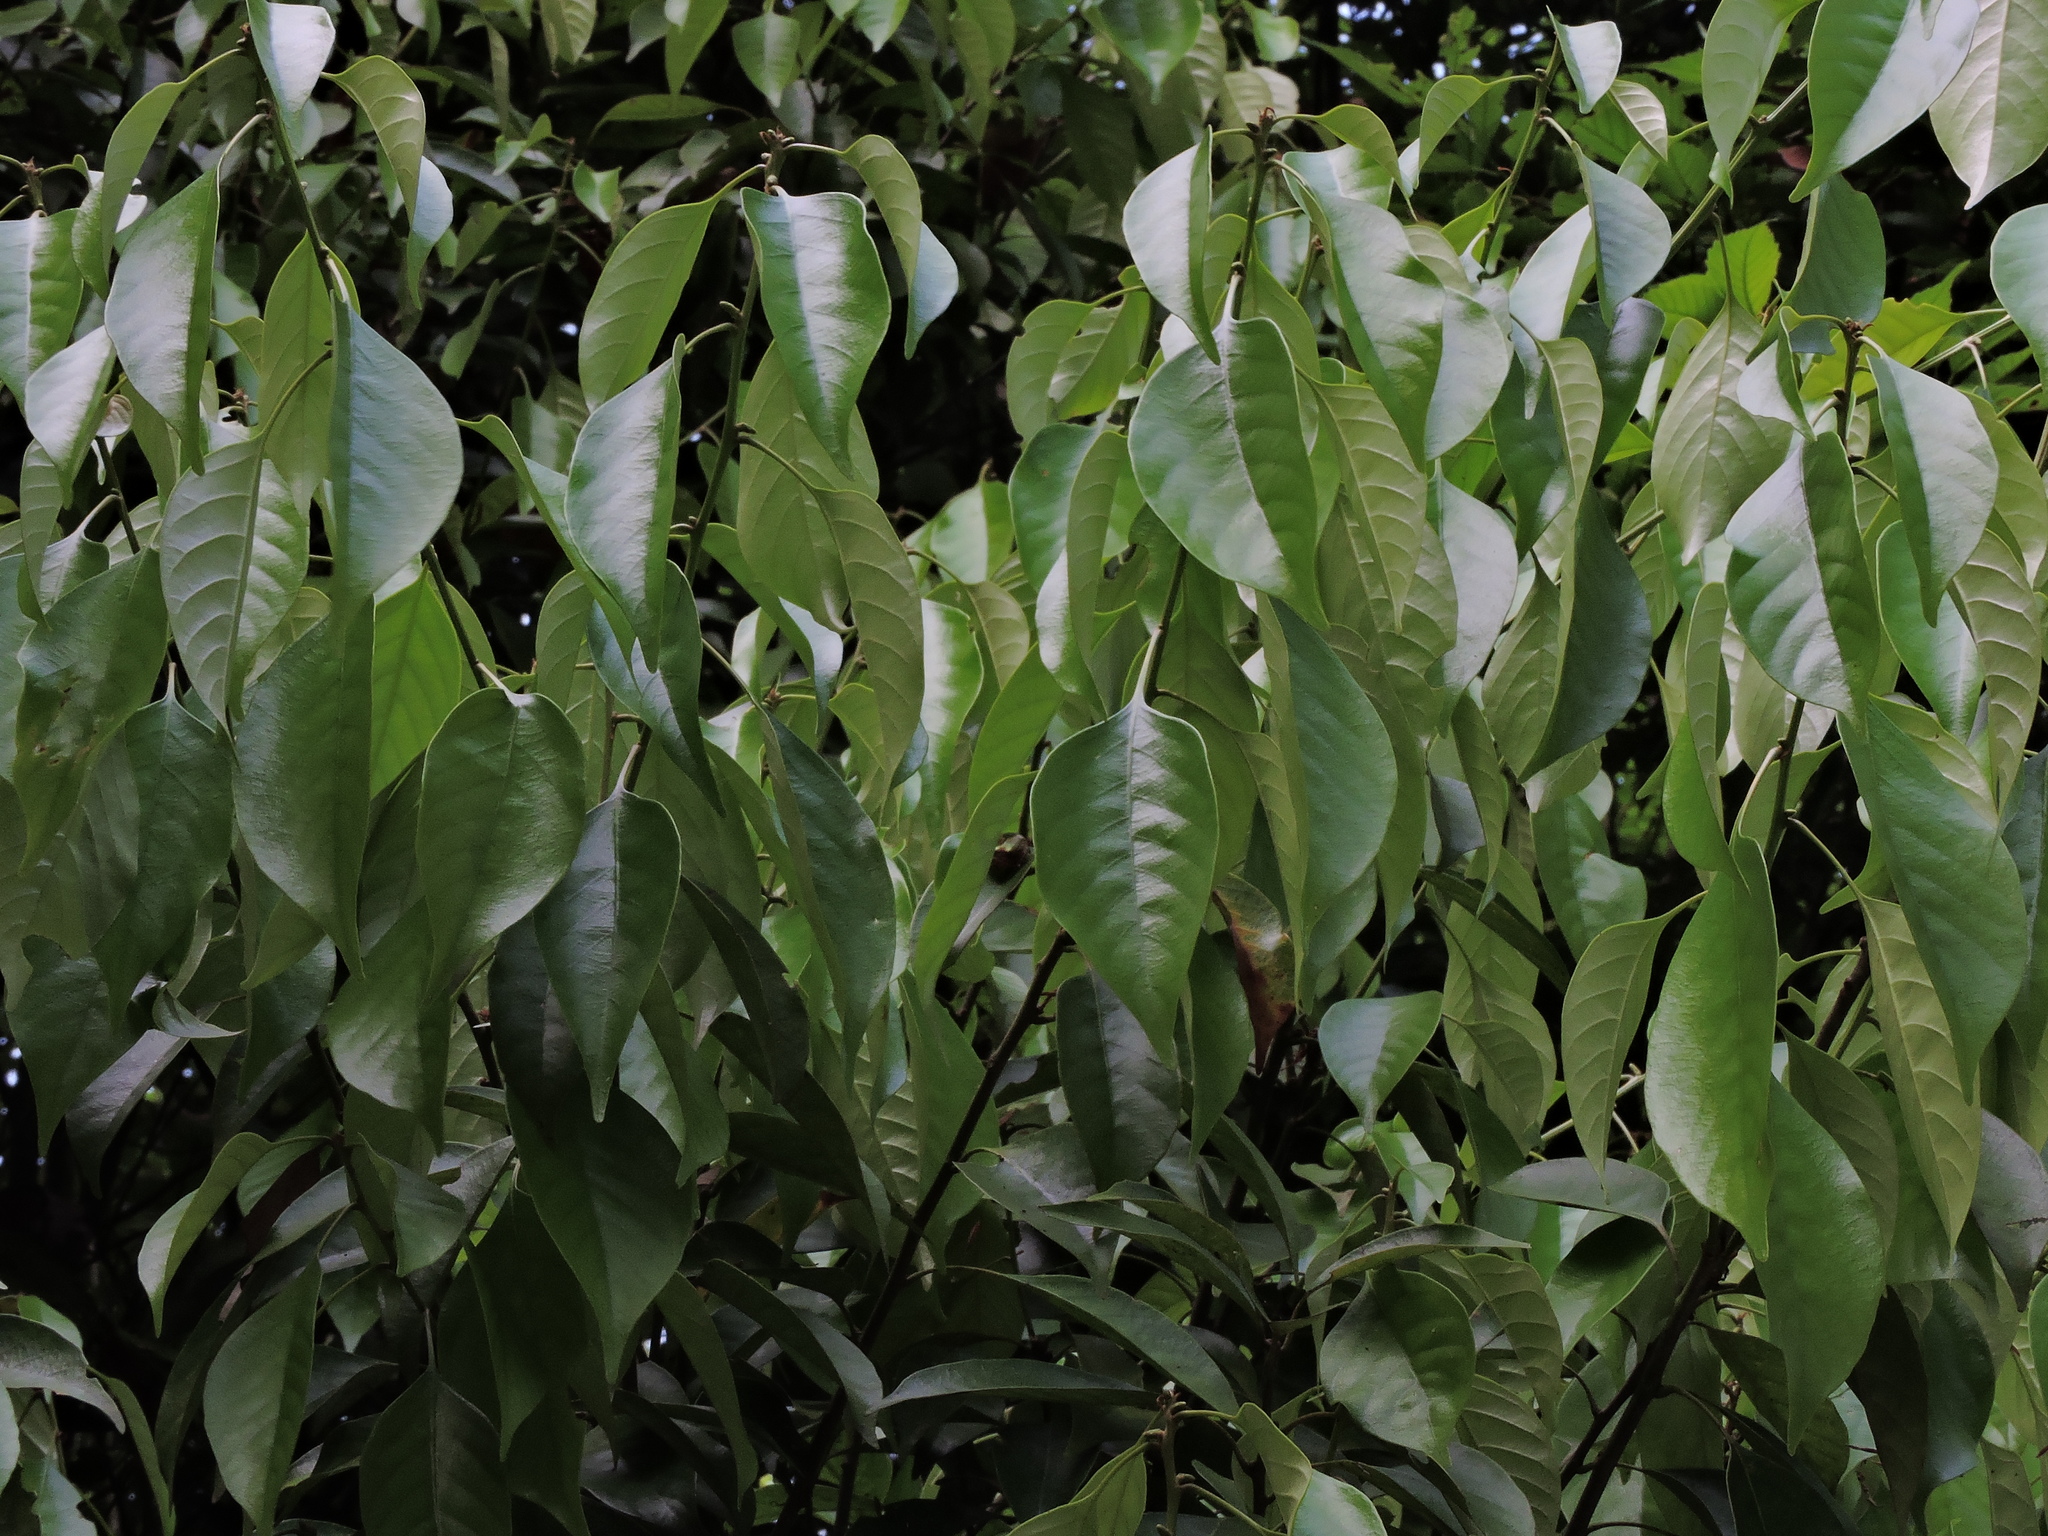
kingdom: Plantae
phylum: Tracheophyta
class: Magnoliopsida
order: Fagales
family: Fagaceae
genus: Lithocarpus
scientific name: Lithocarpus taitoensis
